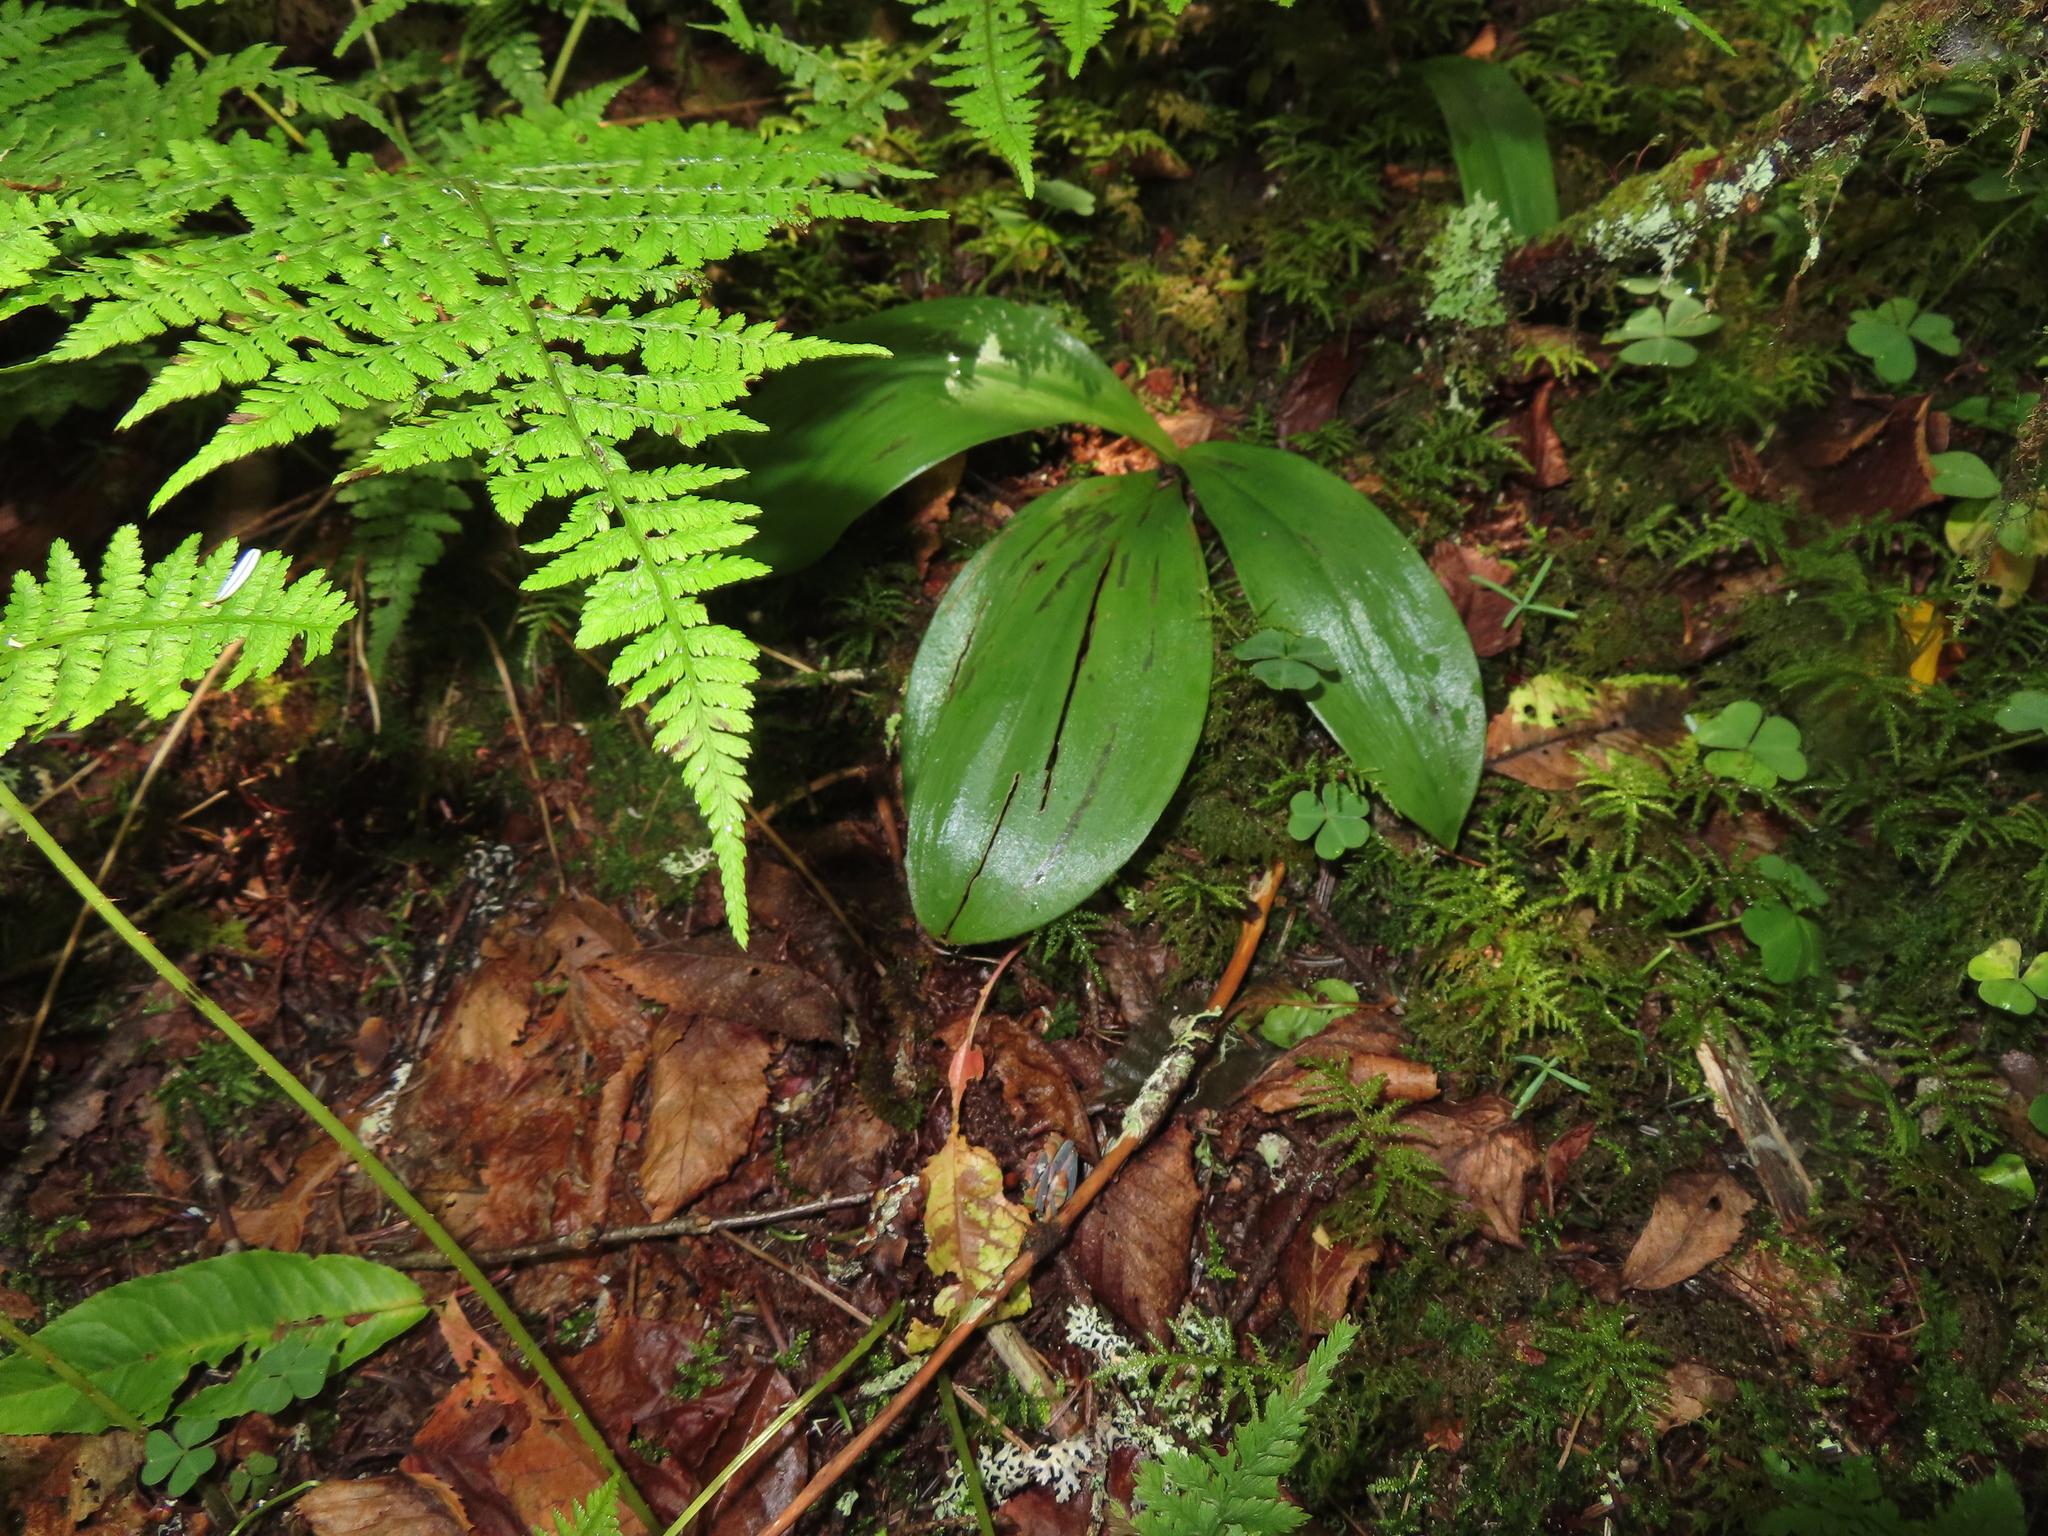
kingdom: Plantae
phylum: Tracheophyta
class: Liliopsida
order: Liliales
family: Liliaceae
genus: Clintonia
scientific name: Clintonia borealis
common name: Yellow clintonia
